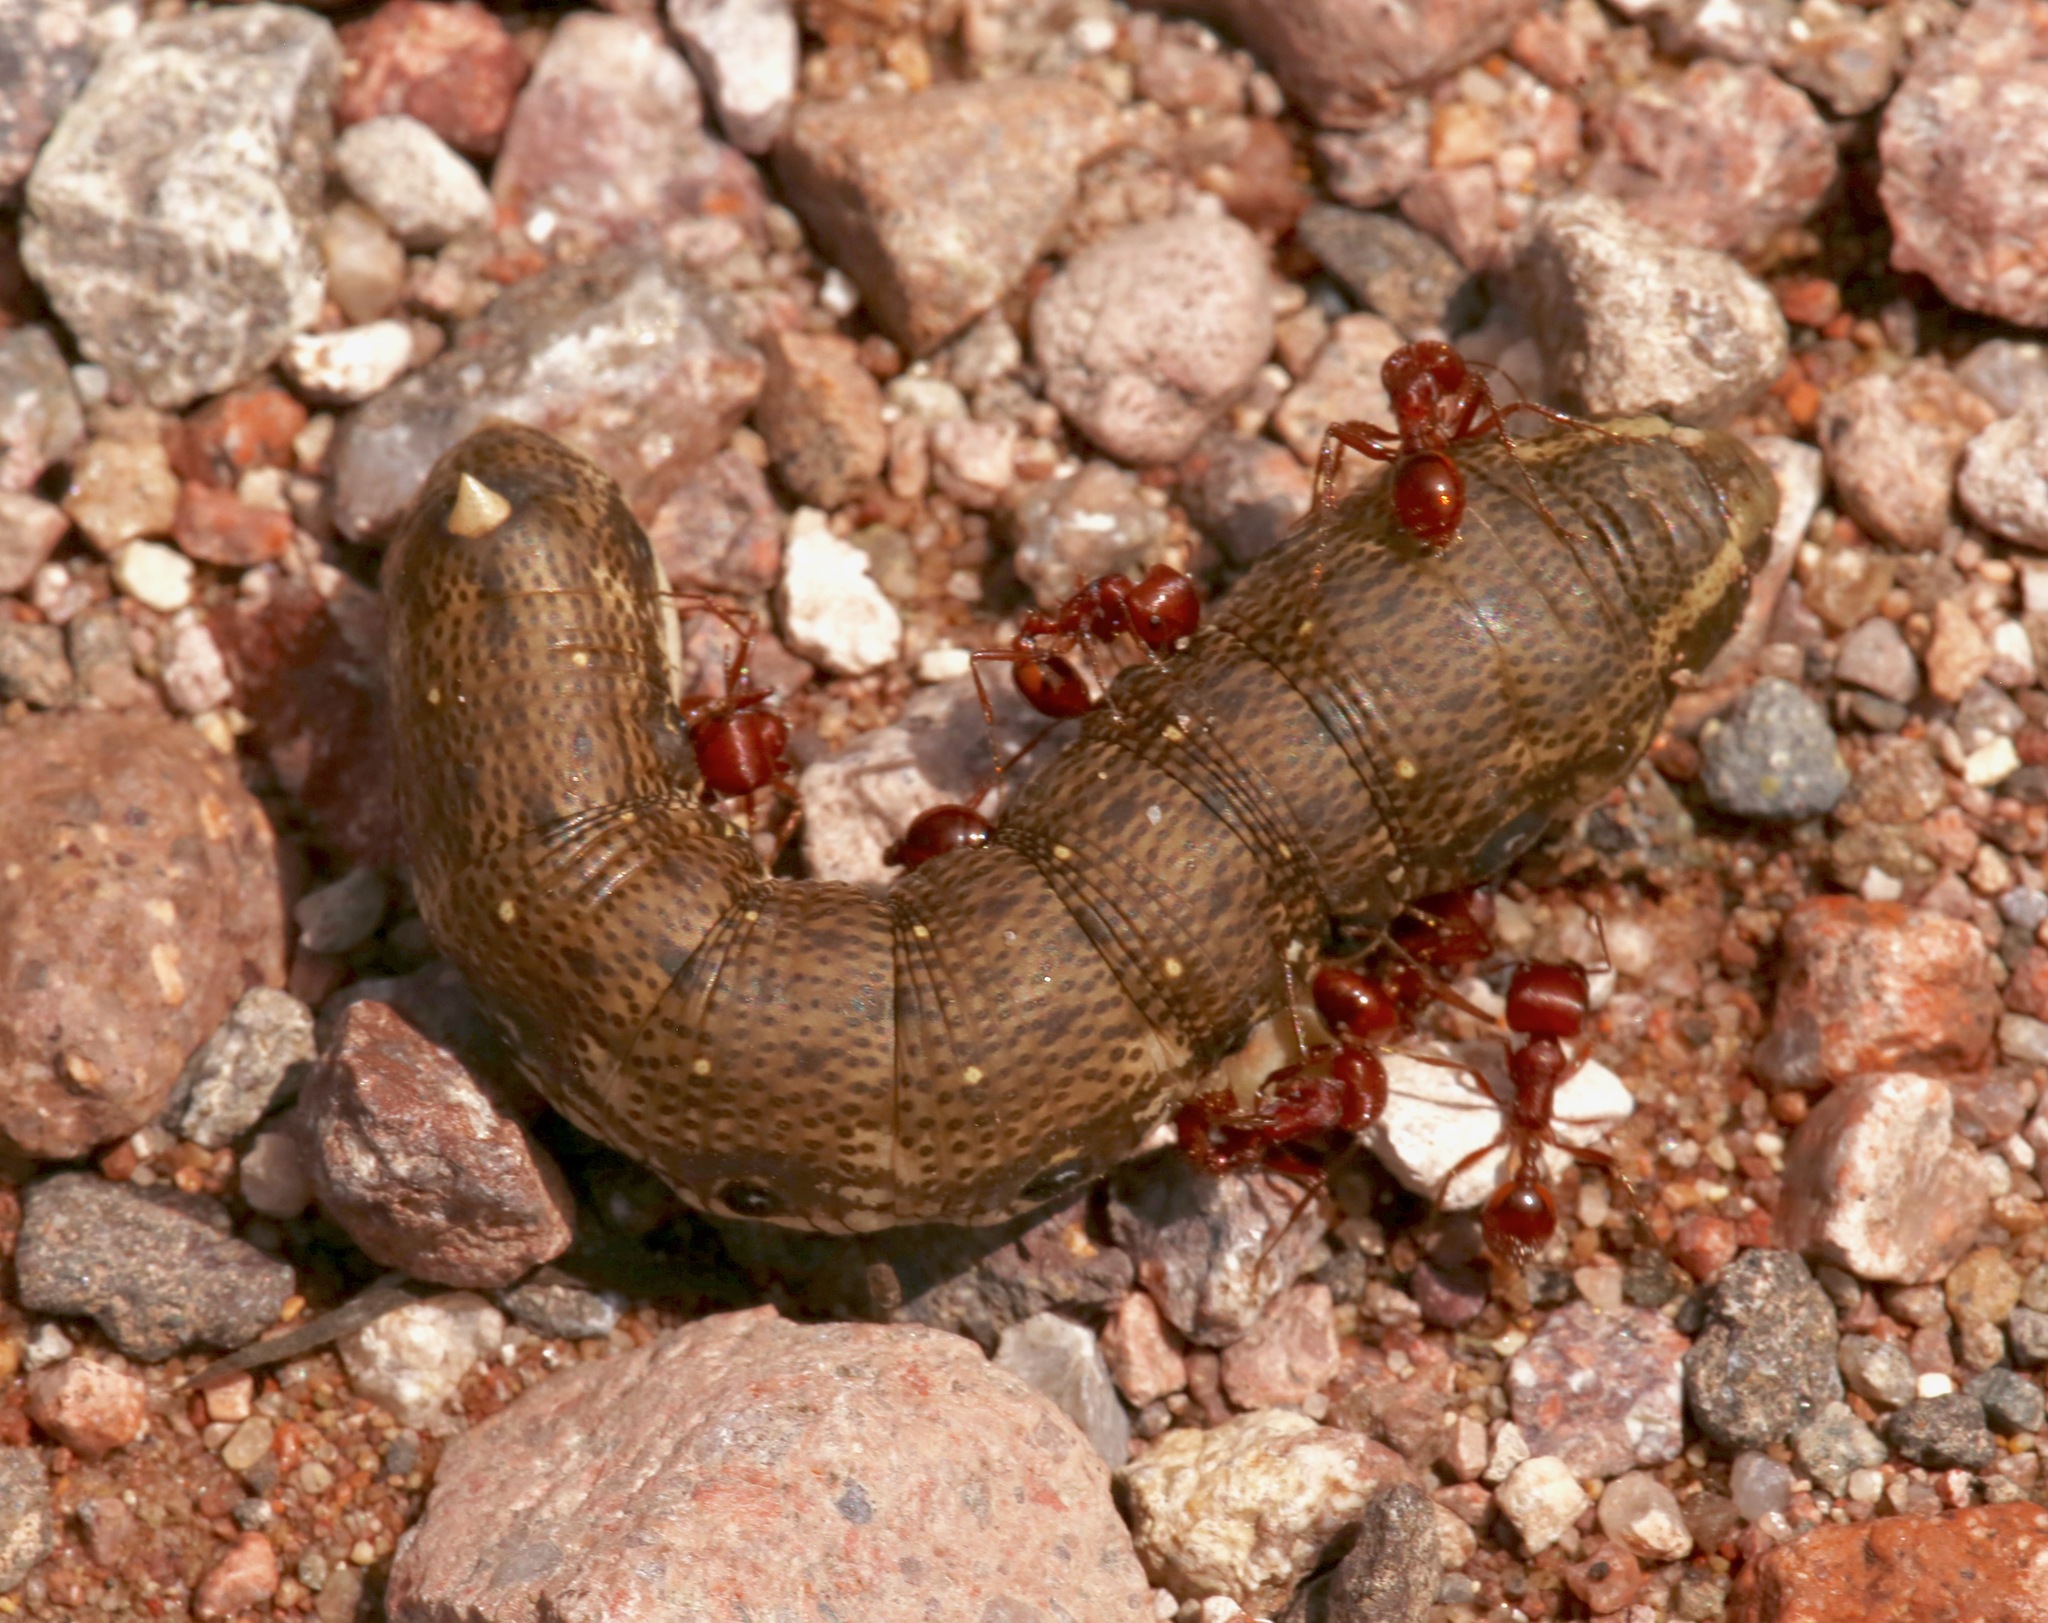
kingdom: Animalia
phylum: Arthropoda
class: Insecta
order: Lepidoptera
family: Sphingidae
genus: Proserpinus
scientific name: Proserpinus terlooii
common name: Terloo's sphinx
